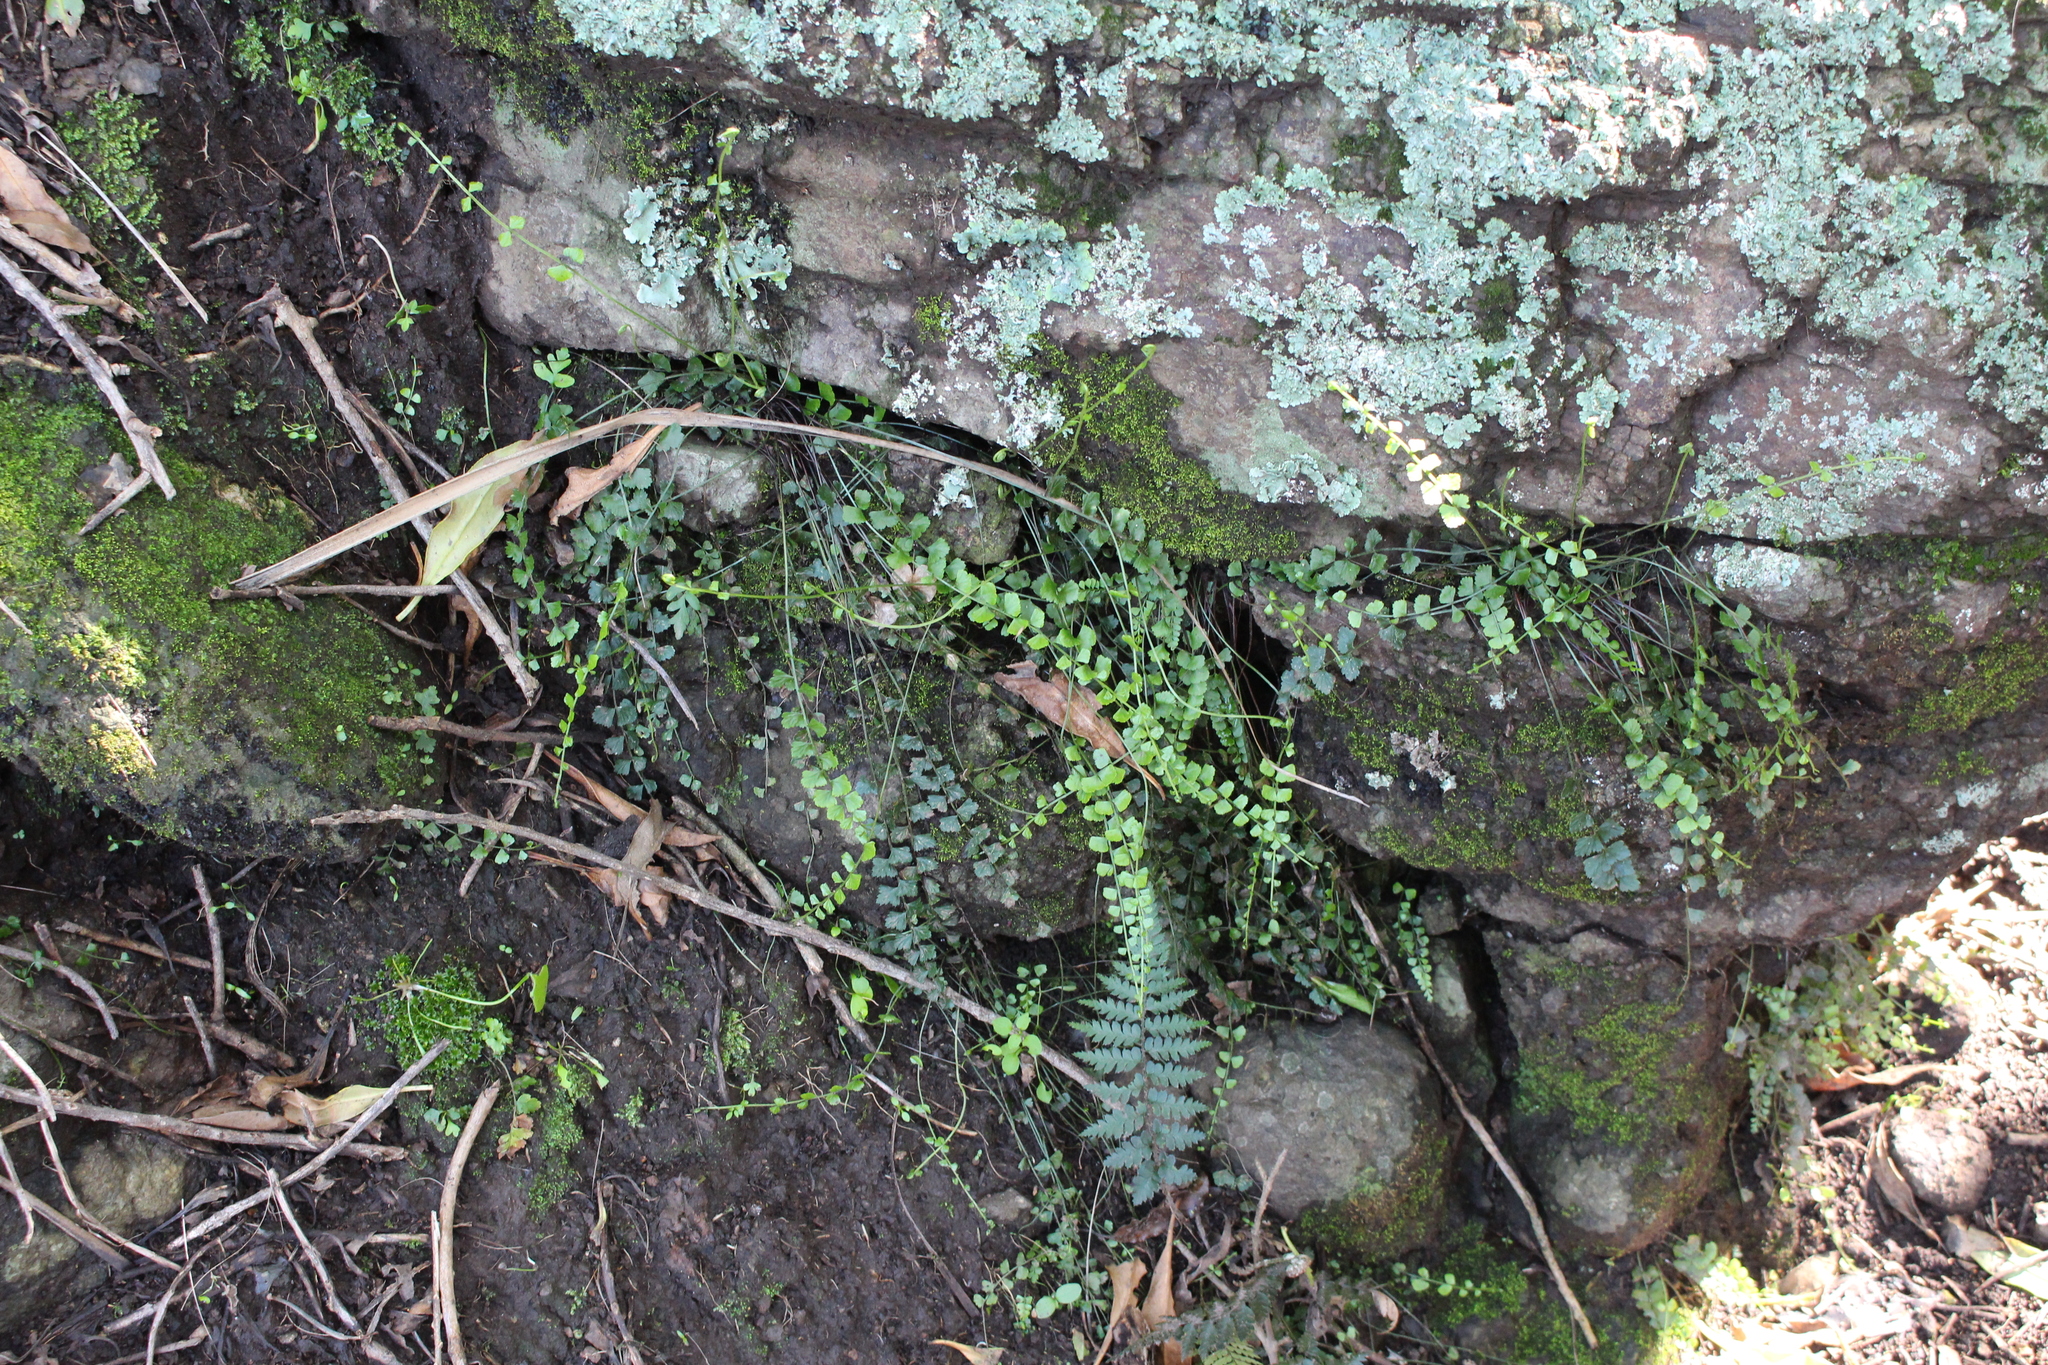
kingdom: Plantae
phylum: Tracheophyta
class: Polypodiopsida
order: Polypodiales
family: Aspleniaceae
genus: Asplenium
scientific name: Asplenium flabellifolium
